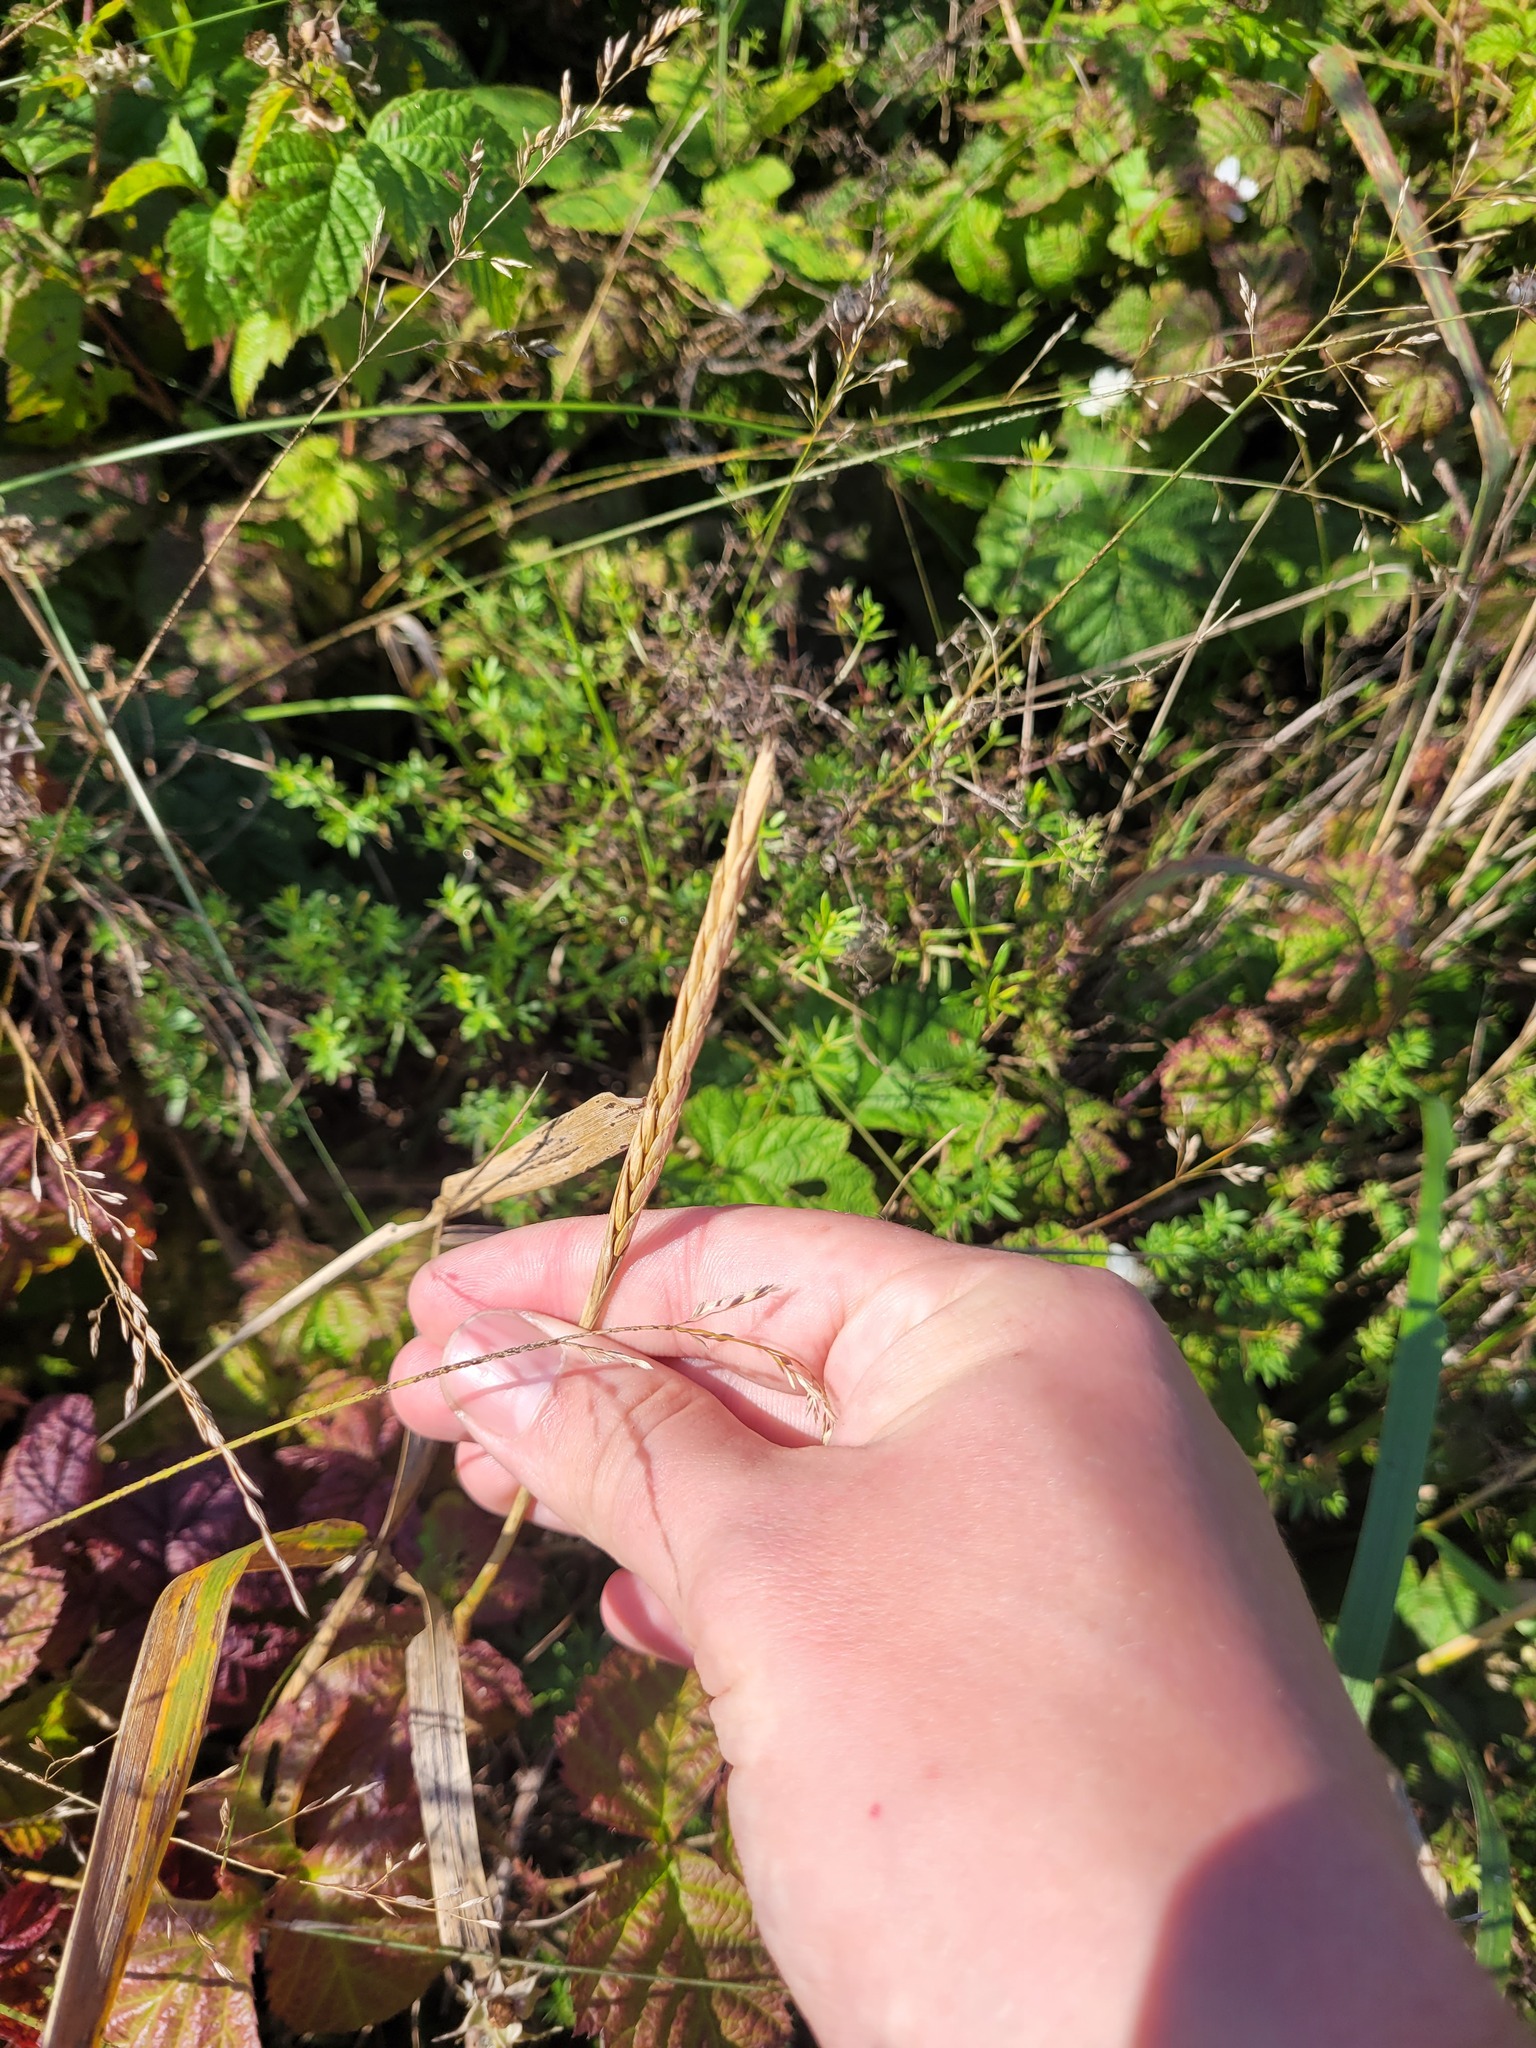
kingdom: Plantae
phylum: Tracheophyta
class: Liliopsida
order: Poales
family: Poaceae
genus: Elymus
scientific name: Elymus repens
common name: Quackgrass
